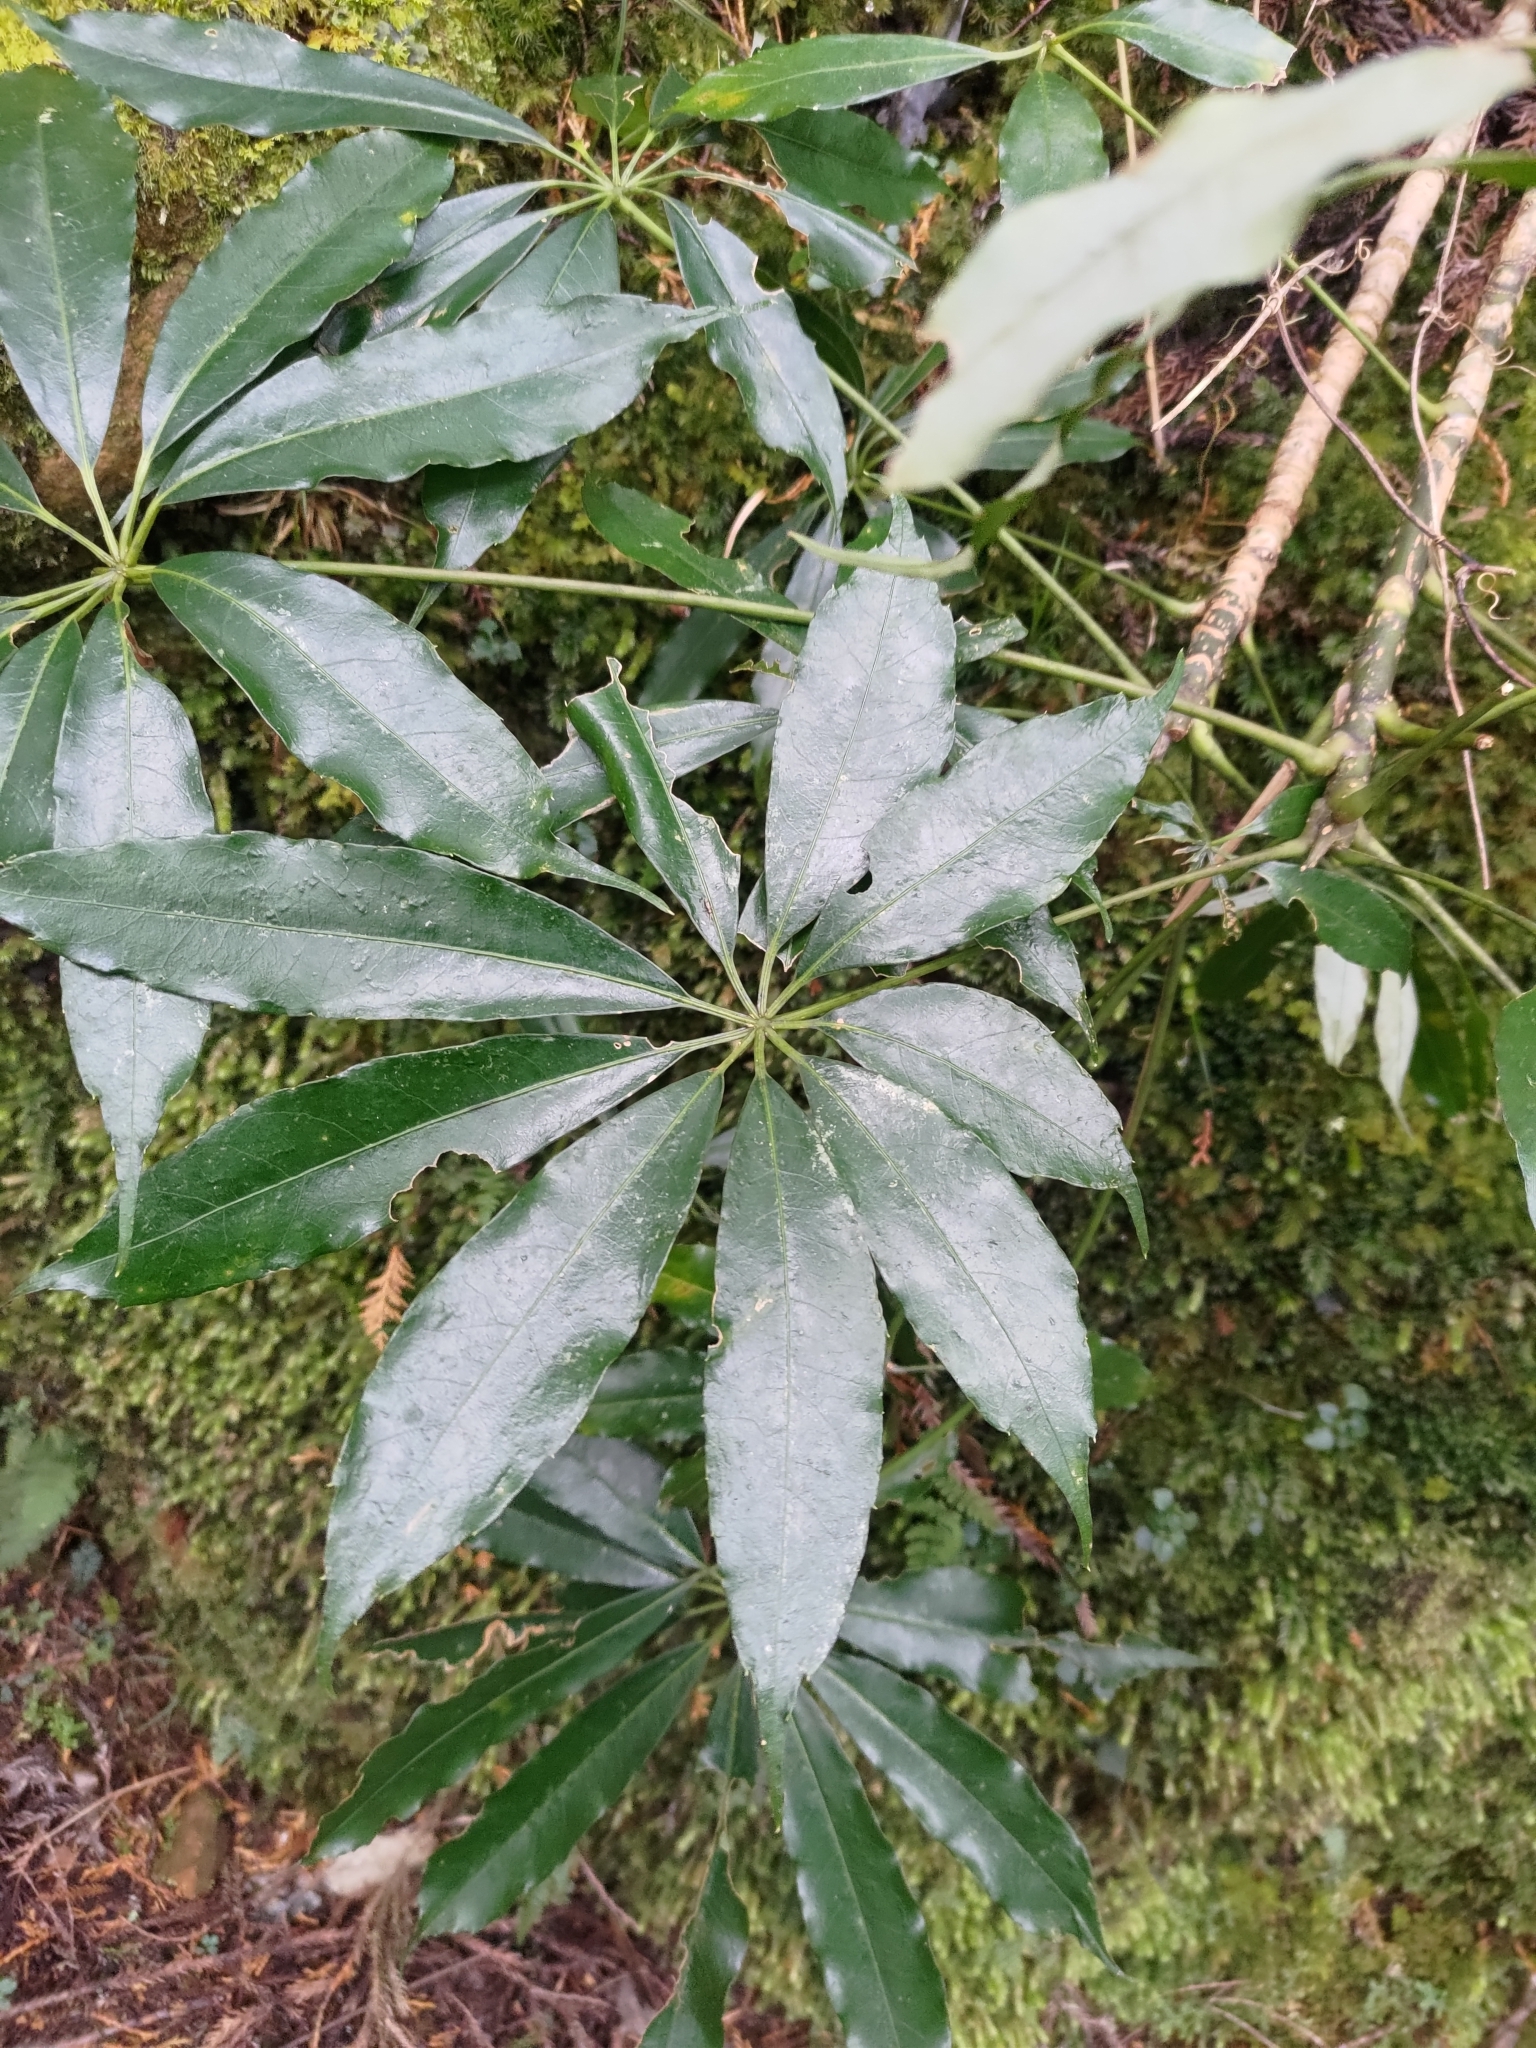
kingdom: Plantae
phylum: Tracheophyta
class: Magnoliopsida
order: Apiales
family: Araliaceae
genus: Heptapleurum
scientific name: Heptapleurum taiwanianum
